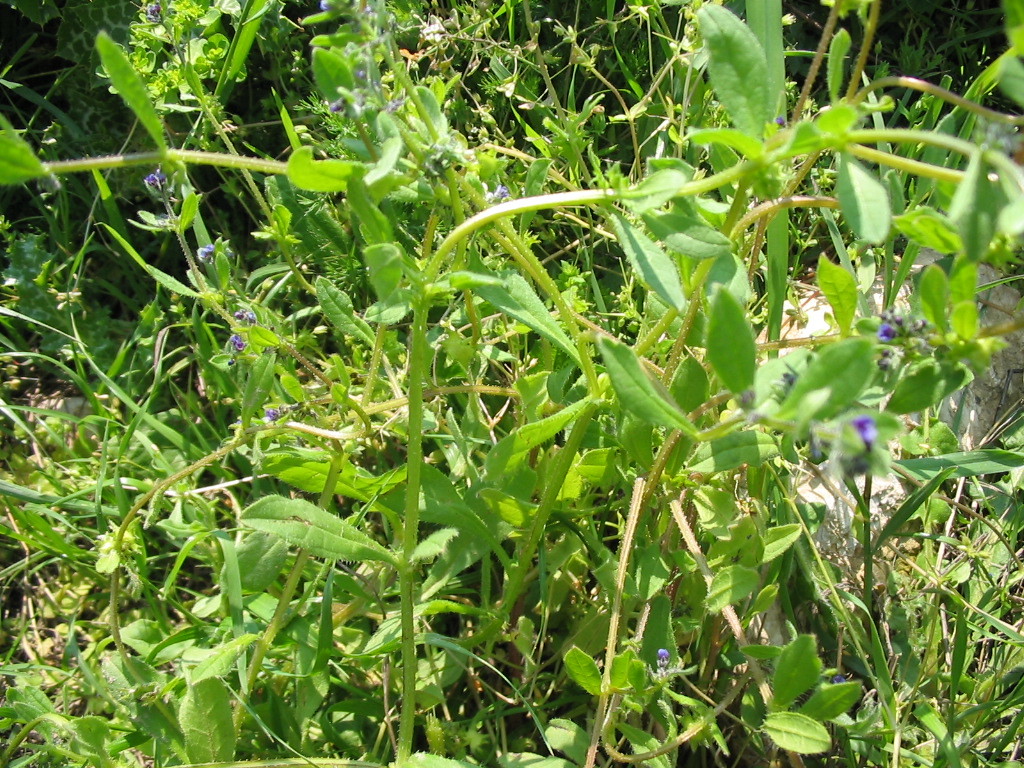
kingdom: Plantae
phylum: Tracheophyta
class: Magnoliopsida
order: Boraginales
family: Boraginaceae
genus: Asperugo
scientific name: Asperugo procumbens
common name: Madwort
